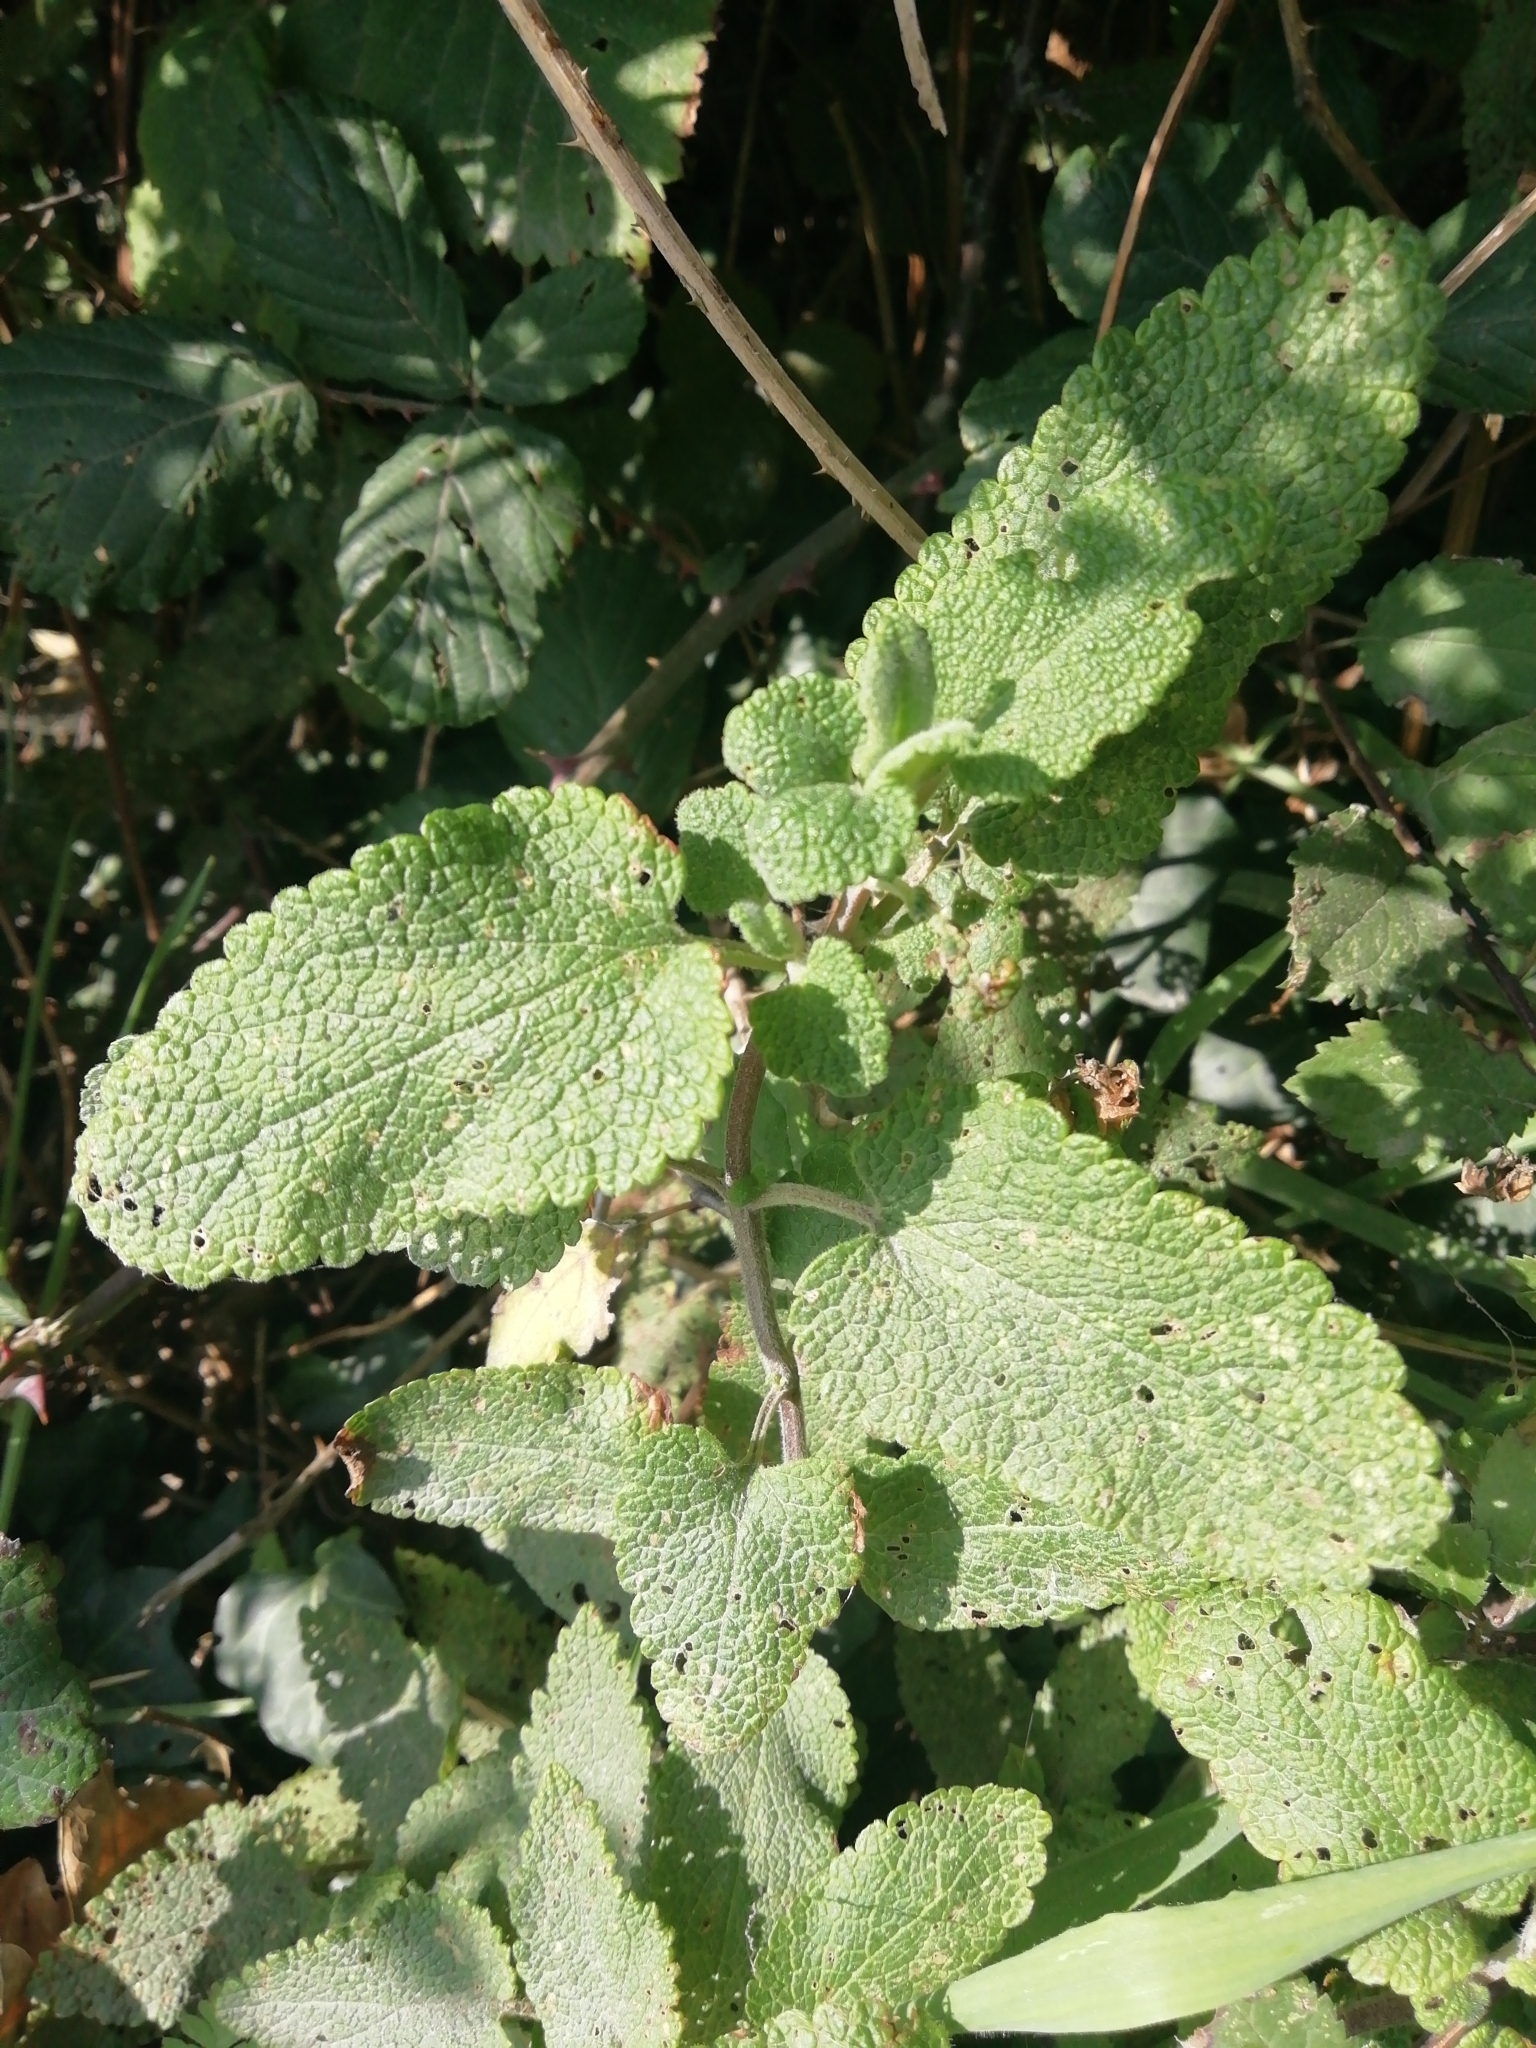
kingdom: Plantae
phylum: Tracheophyta
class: Magnoliopsida
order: Lamiales
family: Lamiaceae
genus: Teucrium
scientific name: Teucrium scorodonia
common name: Woodland germander
